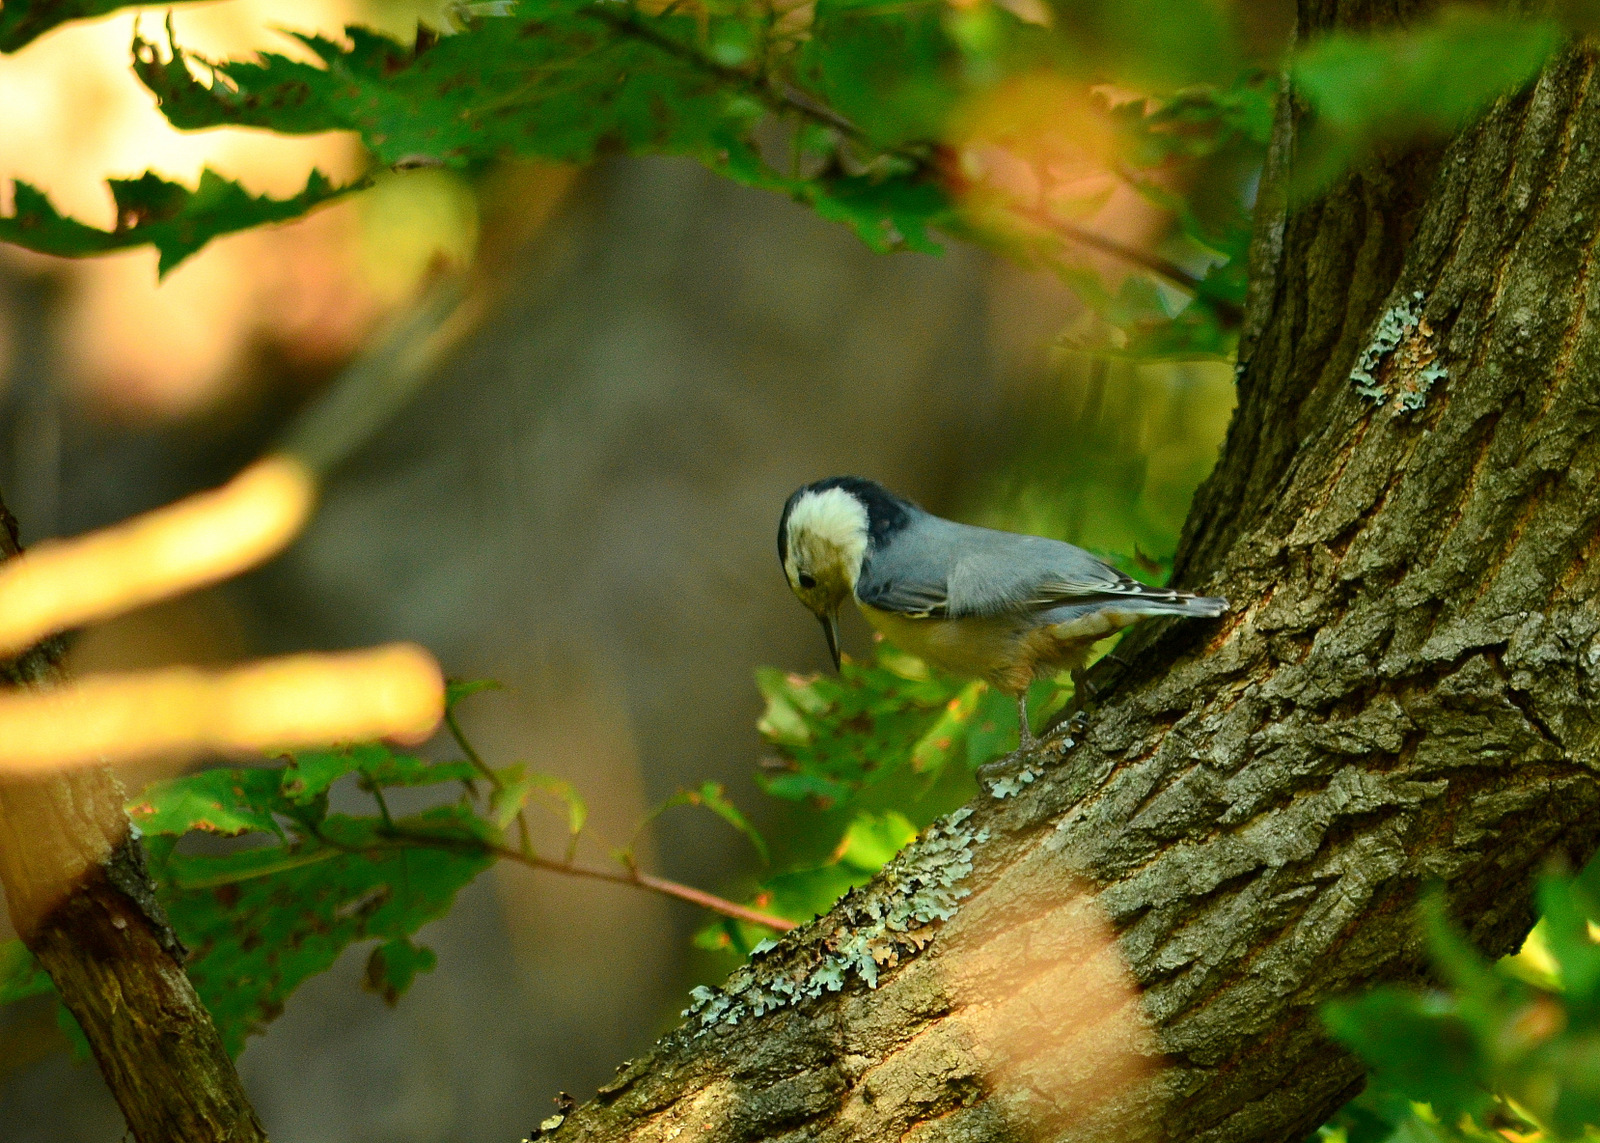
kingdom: Animalia
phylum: Chordata
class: Aves
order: Passeriformes
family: Sittidae
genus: Sitta
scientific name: Sitta carolinensis
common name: White-breasted nuthatch
